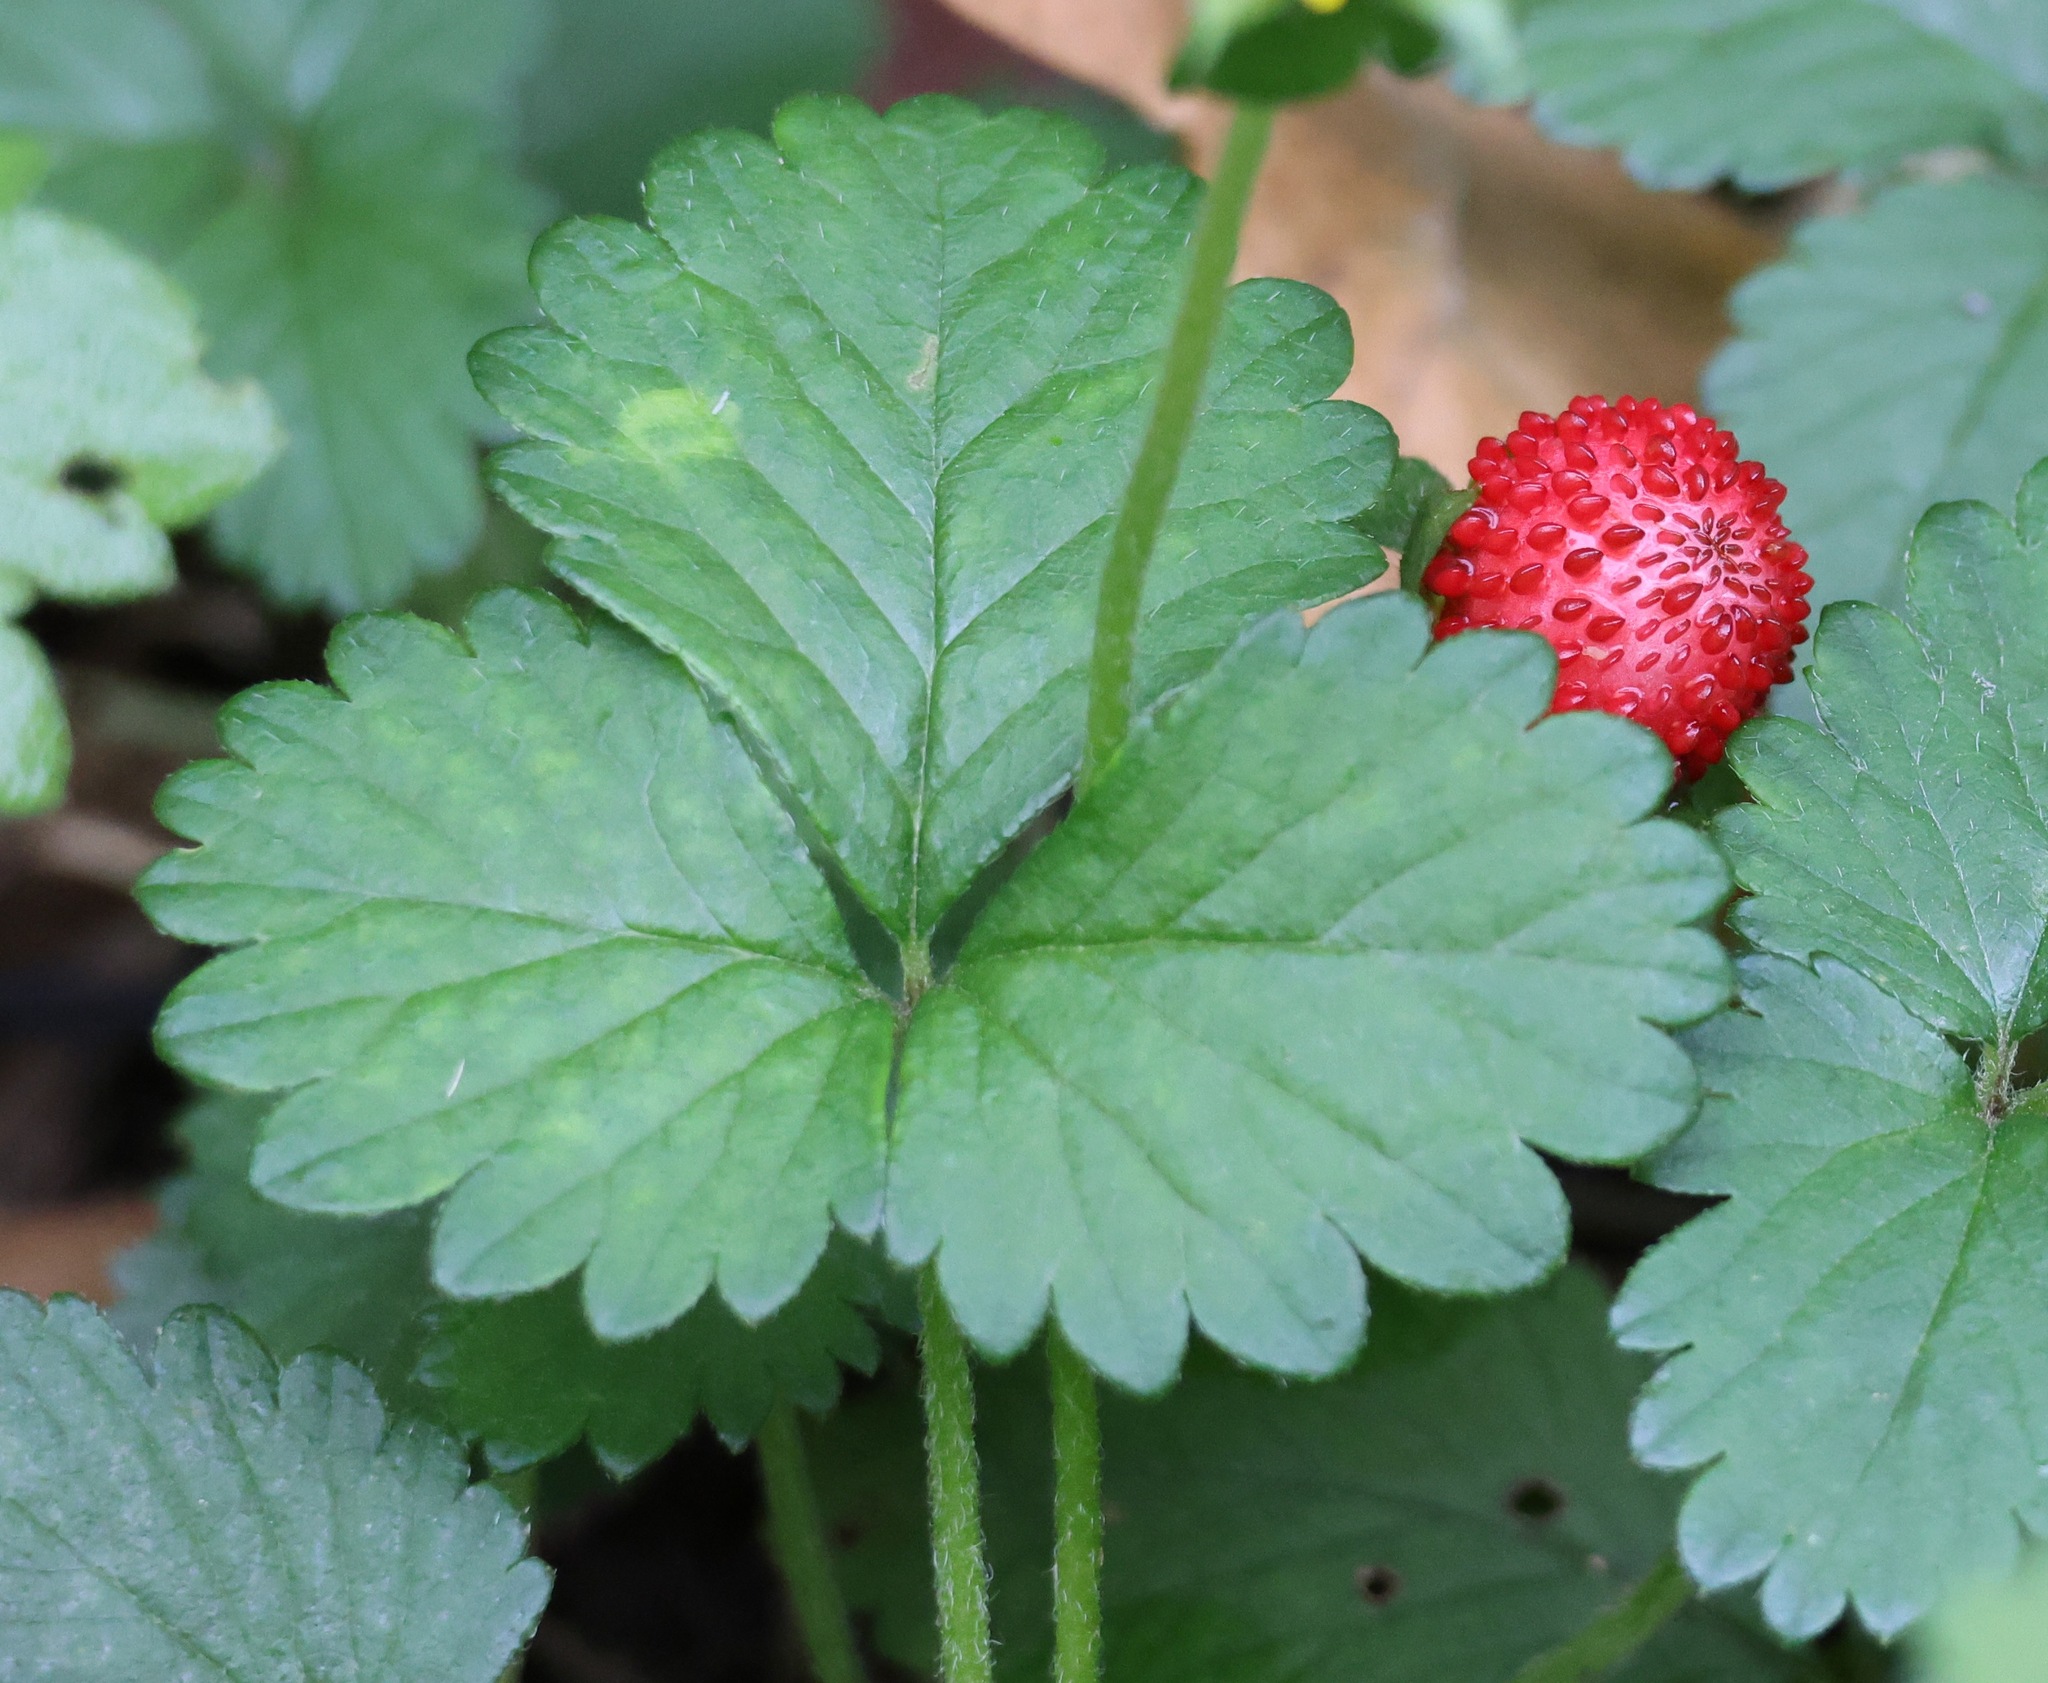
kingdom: Plantae
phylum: Tracheophyta
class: Magnoliopsida
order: Rosales
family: Rosaceae
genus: Potentilla
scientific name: Potentilla indica
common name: Yellow-flowered strawberry
